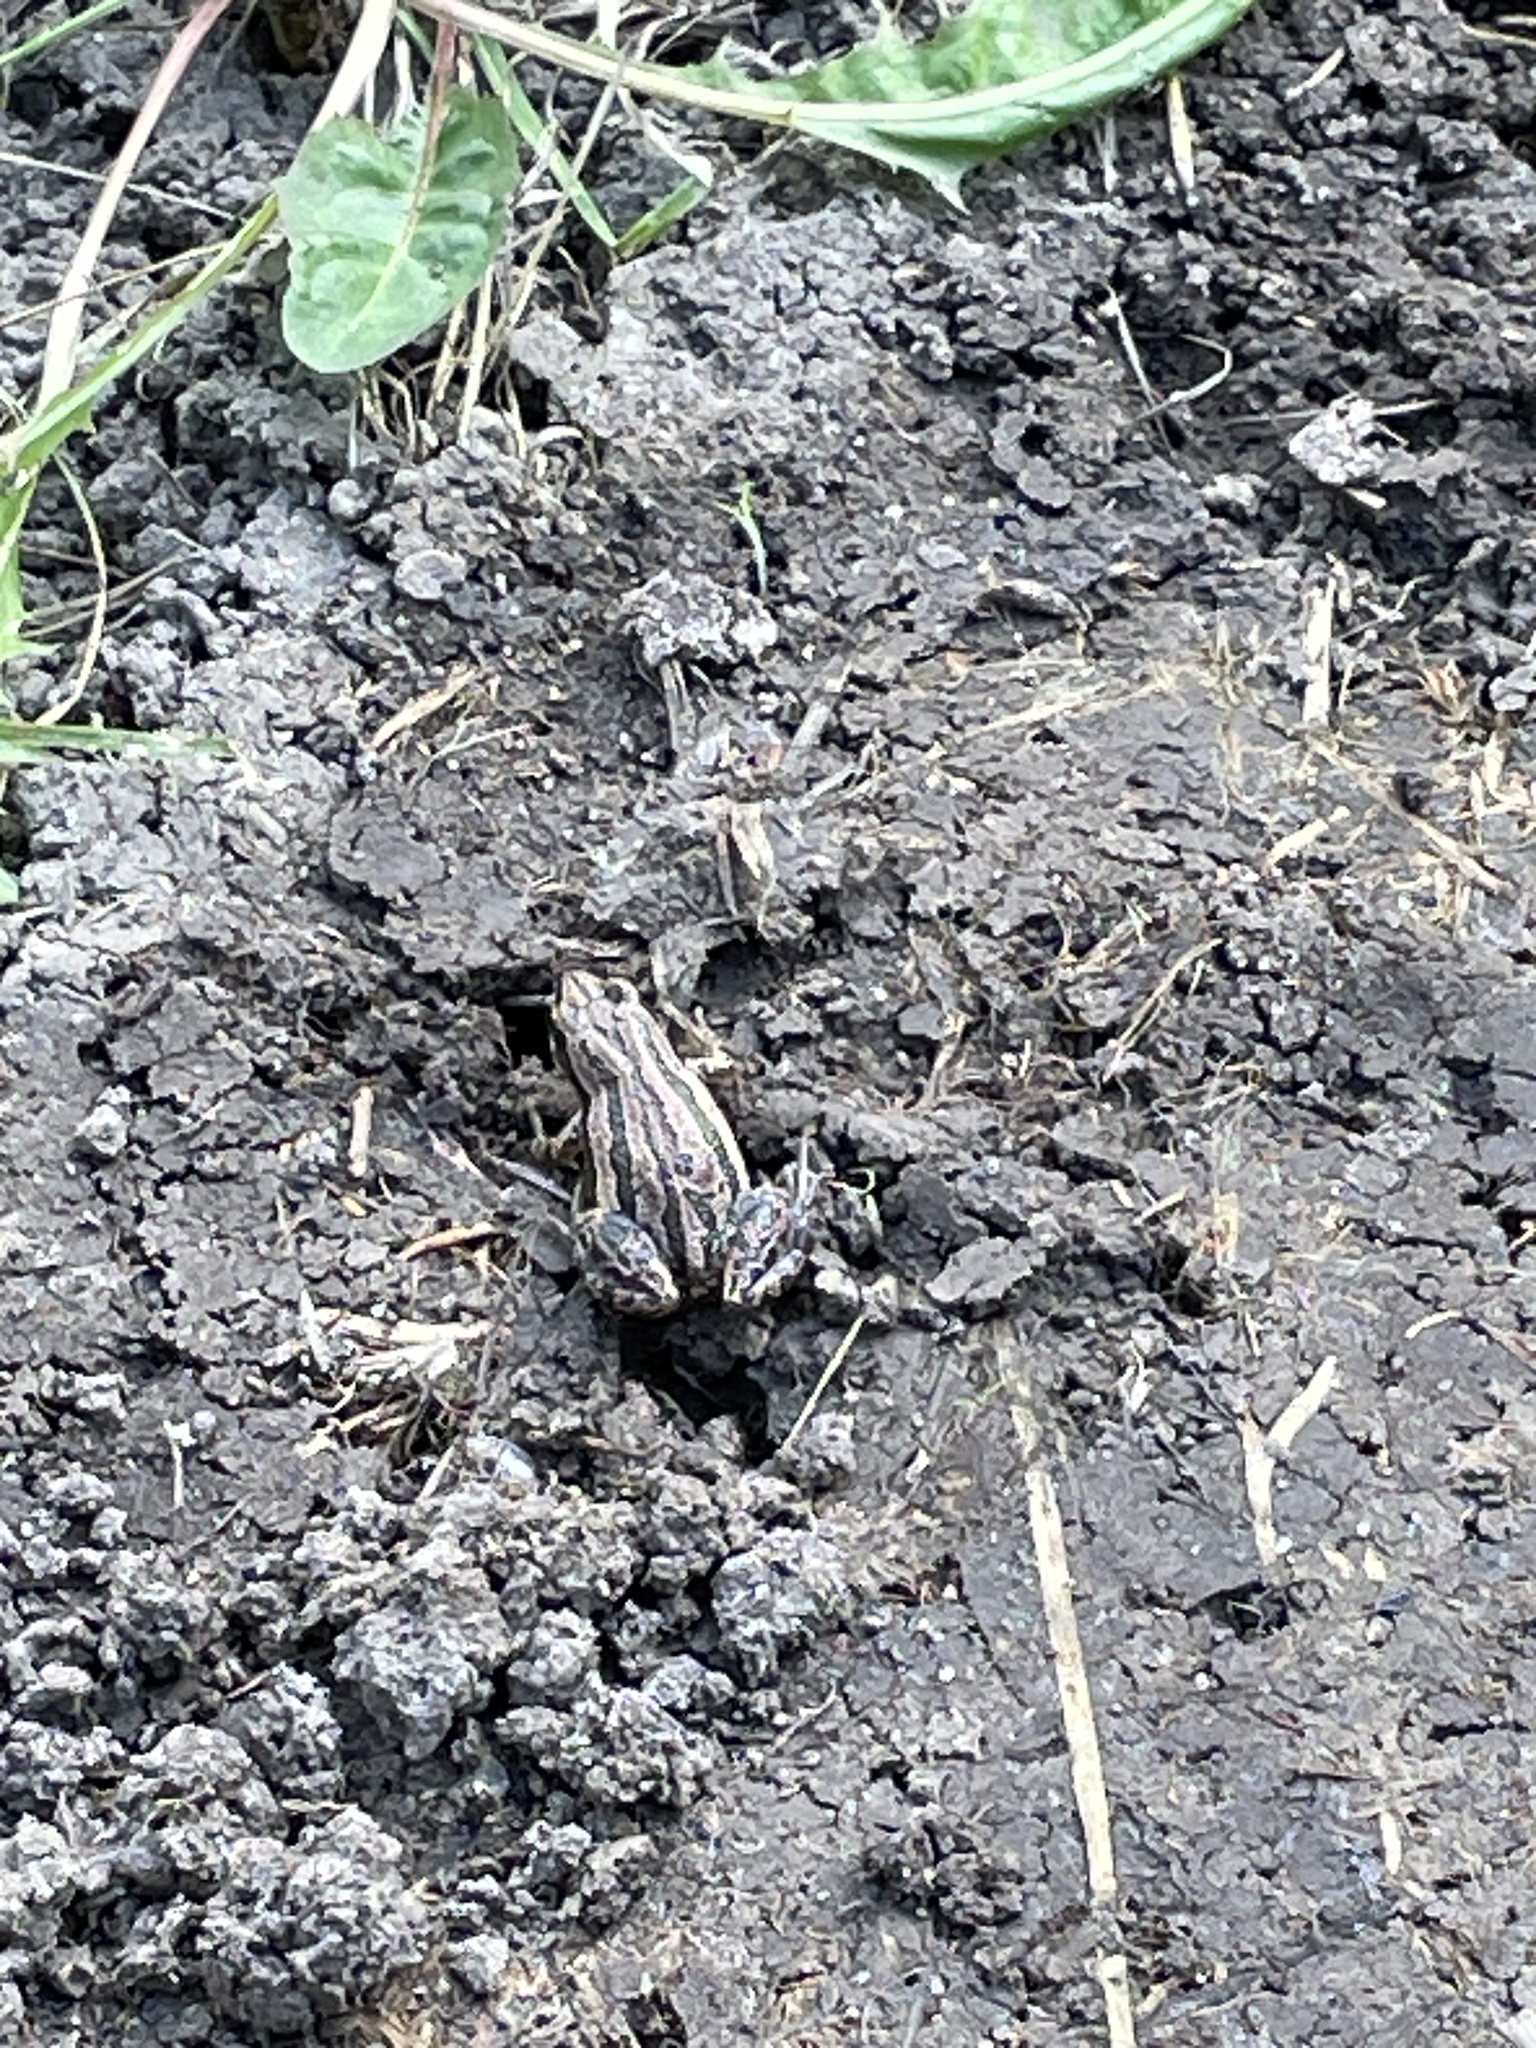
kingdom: Animalia
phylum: Chordata
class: Amphibia
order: Anura
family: Hylidae
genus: Pseudacris
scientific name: Pseudacris maculata
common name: Boreal chorus frog
